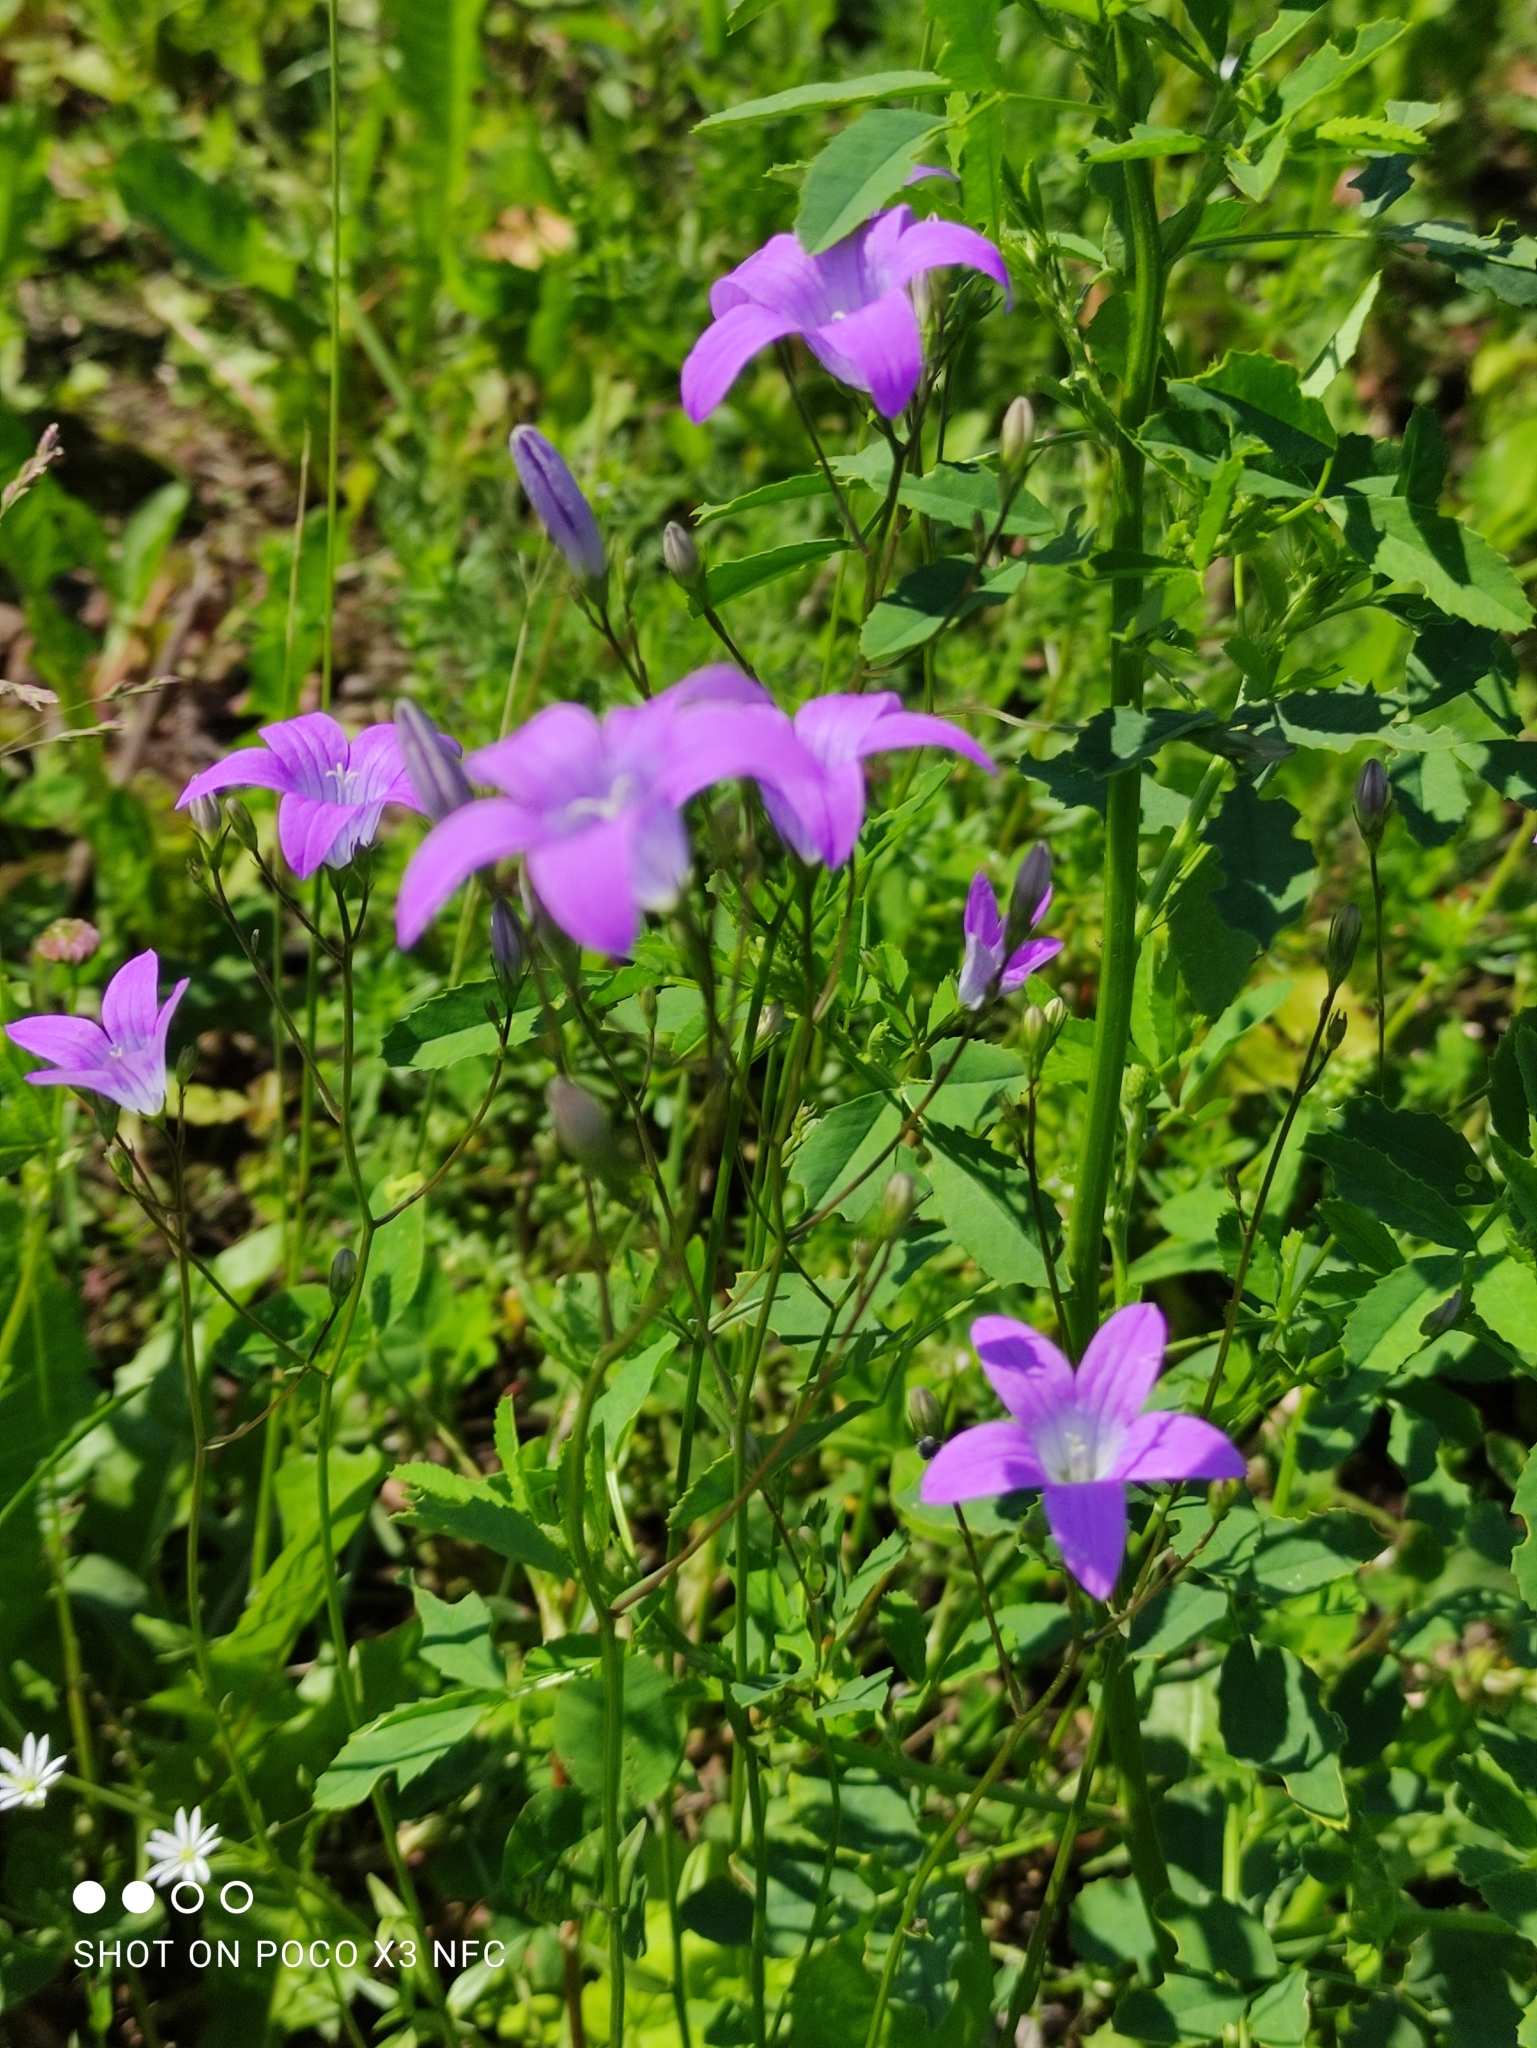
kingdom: Plantae
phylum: Tracheophyta
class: Magnoliopsida
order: Asterales
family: Campanulaceae
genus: Campanula
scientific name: Campanula patula
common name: Spreading bellflower
